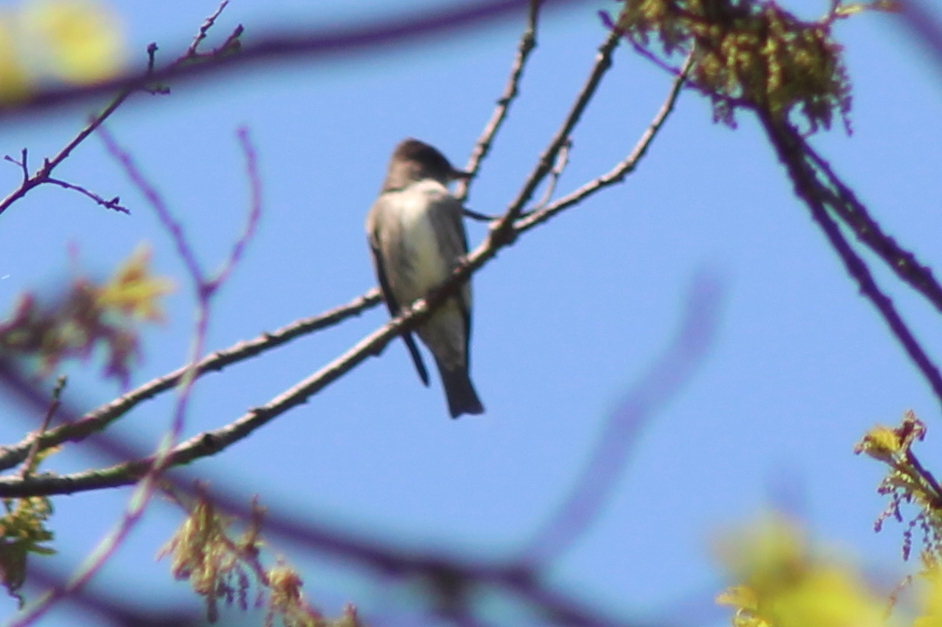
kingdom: Animalia
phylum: Chordata
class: Aves
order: Passeriformes
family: Tyrannidae
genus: Contopus
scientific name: Contopus cooperi
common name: Olive-sided flycatcher
